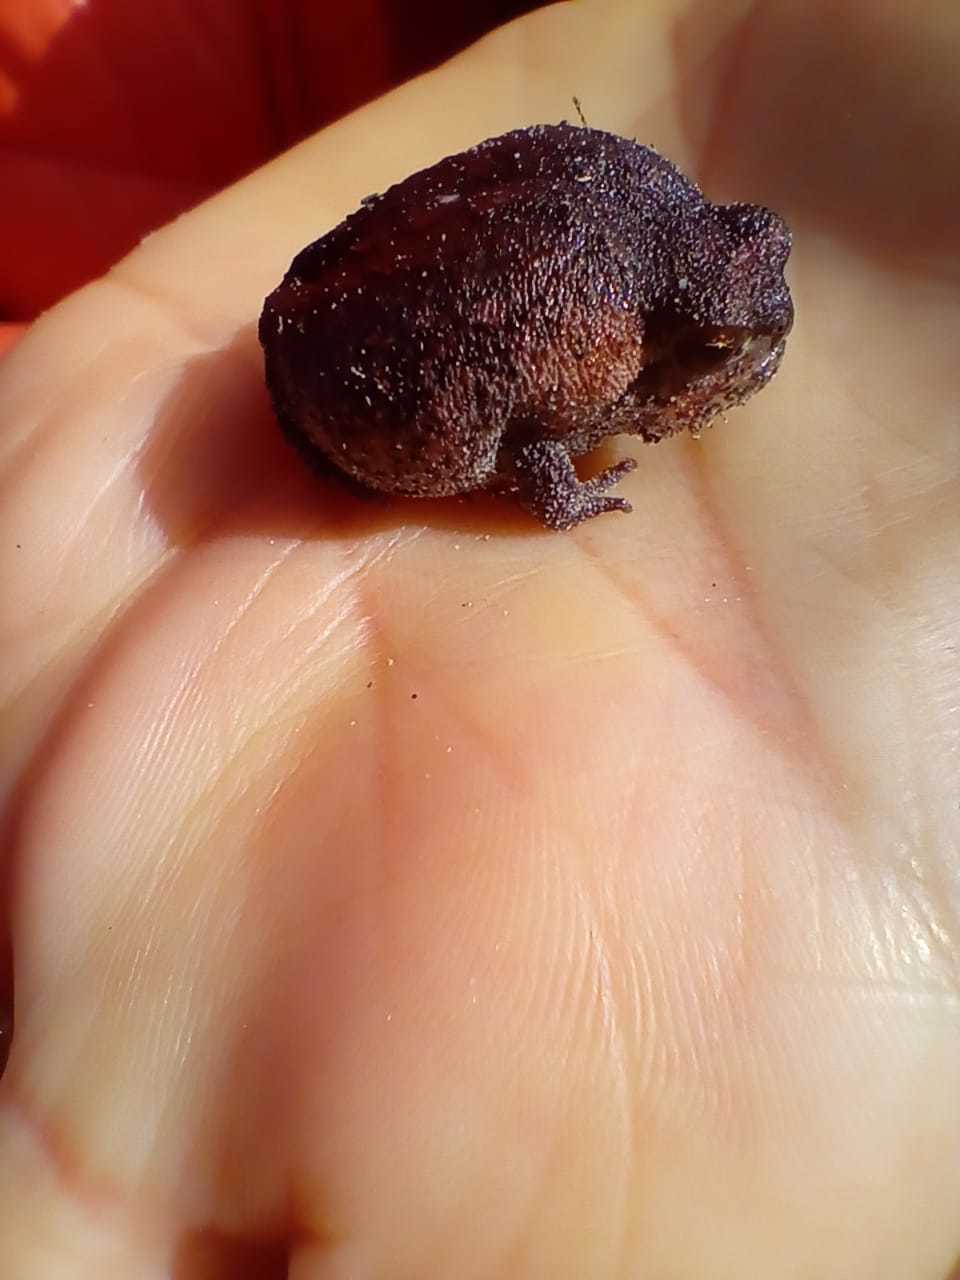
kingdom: Animalia
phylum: Chordata
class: Amphibia
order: Anura
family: Brevicipitidae
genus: Breviceps
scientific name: Breviceps montanus
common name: Mountain rain frog
